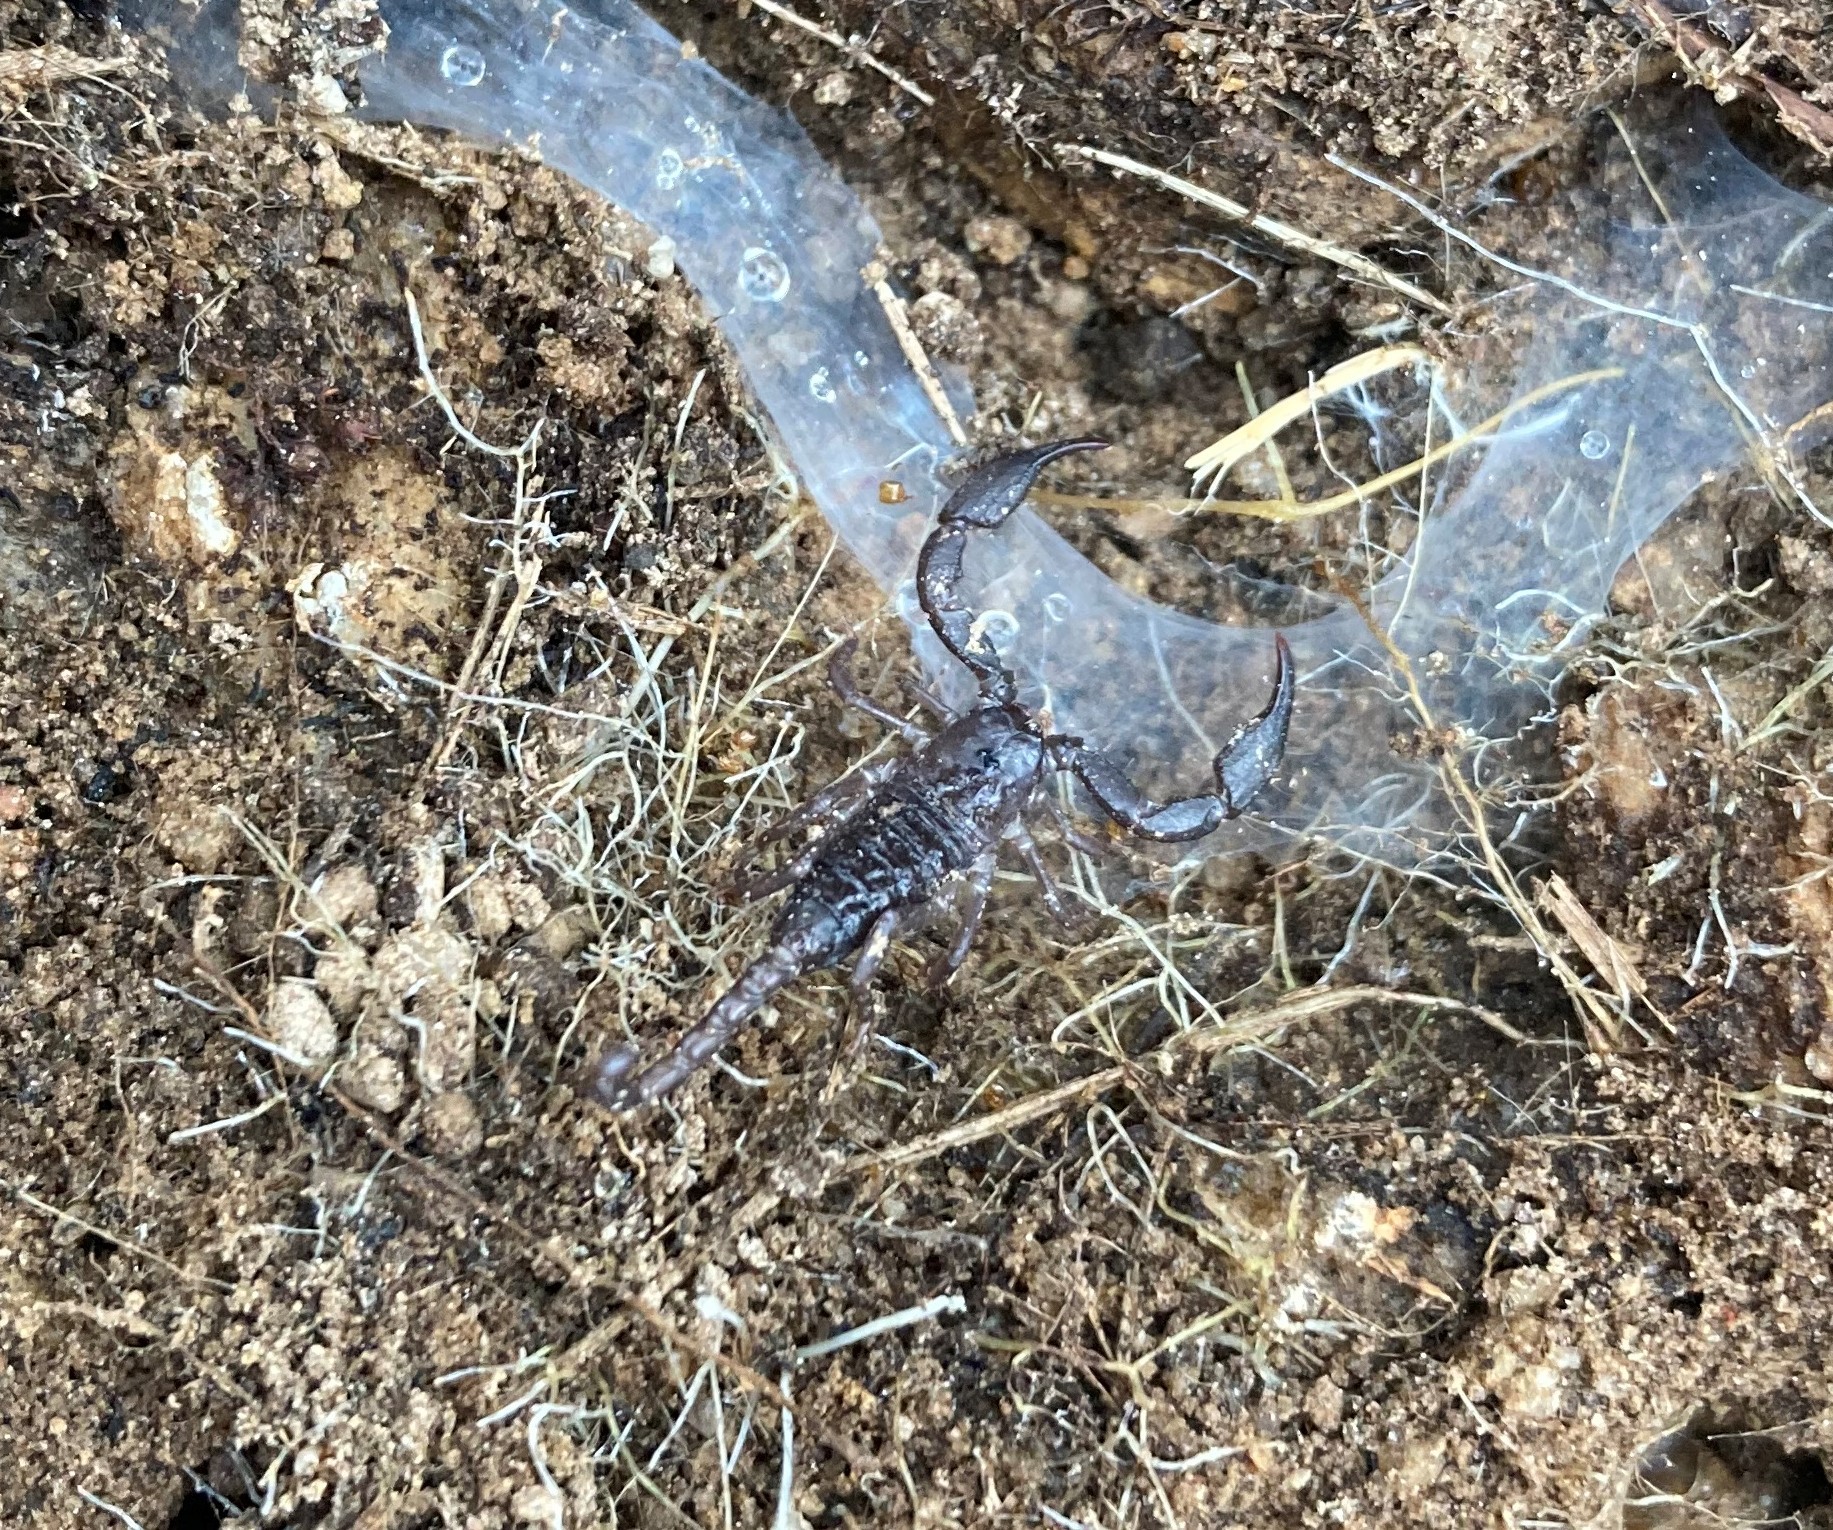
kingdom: Animalia
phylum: Arthropoda
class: Arachnida
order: Scorpiones
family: Hormuridae
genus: Opisthacanthus
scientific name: Opisthacanthus capensis
